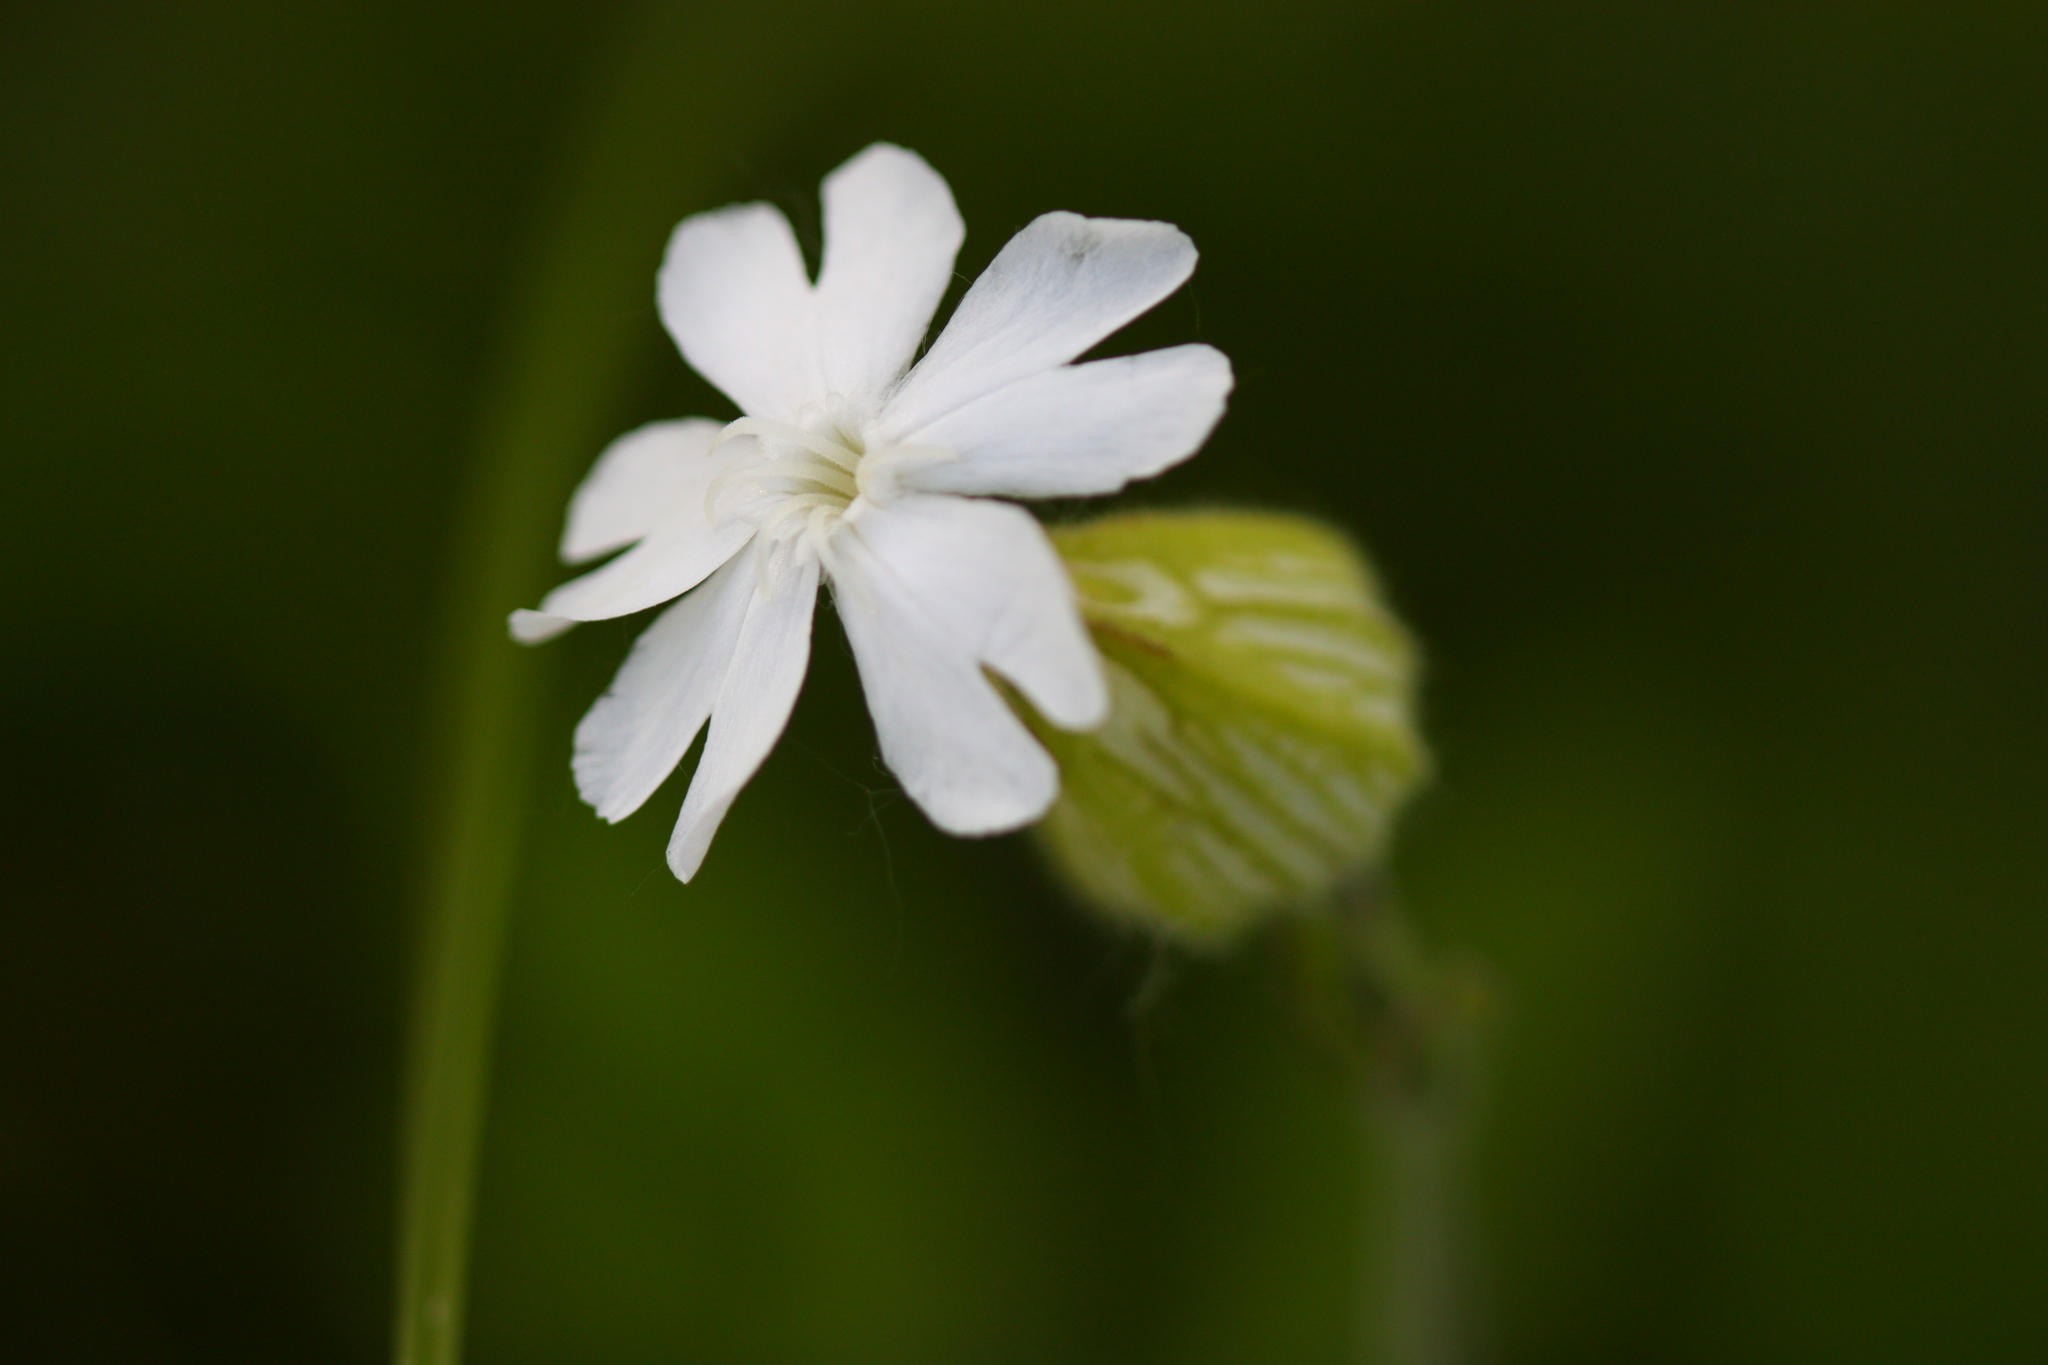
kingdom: Plantae
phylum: Tracheophyta
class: Magnoliopsida
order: Caryophyllales
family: Caryophyllaceae
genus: Silene
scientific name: Silene latifolia
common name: White campion
